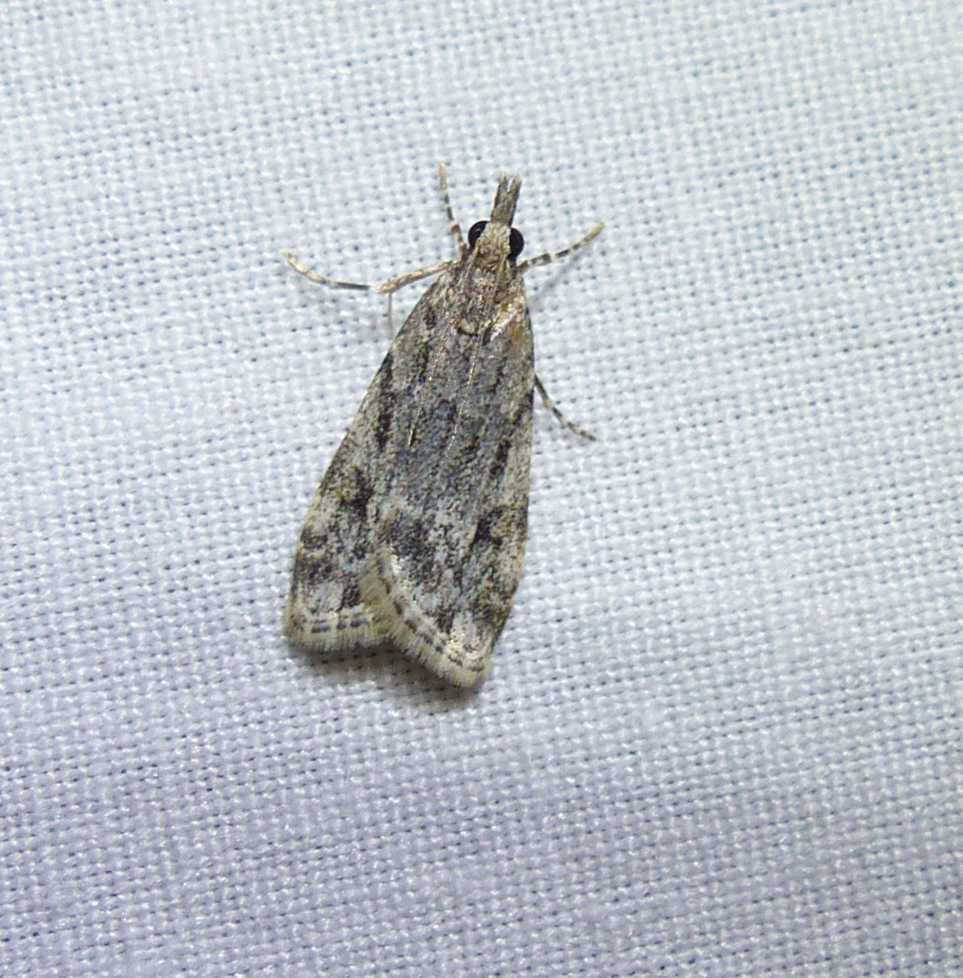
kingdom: Animalia
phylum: Arthropoda
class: Insecta
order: Lepidoptera
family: Crambidae
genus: Eudonia
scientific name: Eudonia strigalis
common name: Striped eudonia moth
